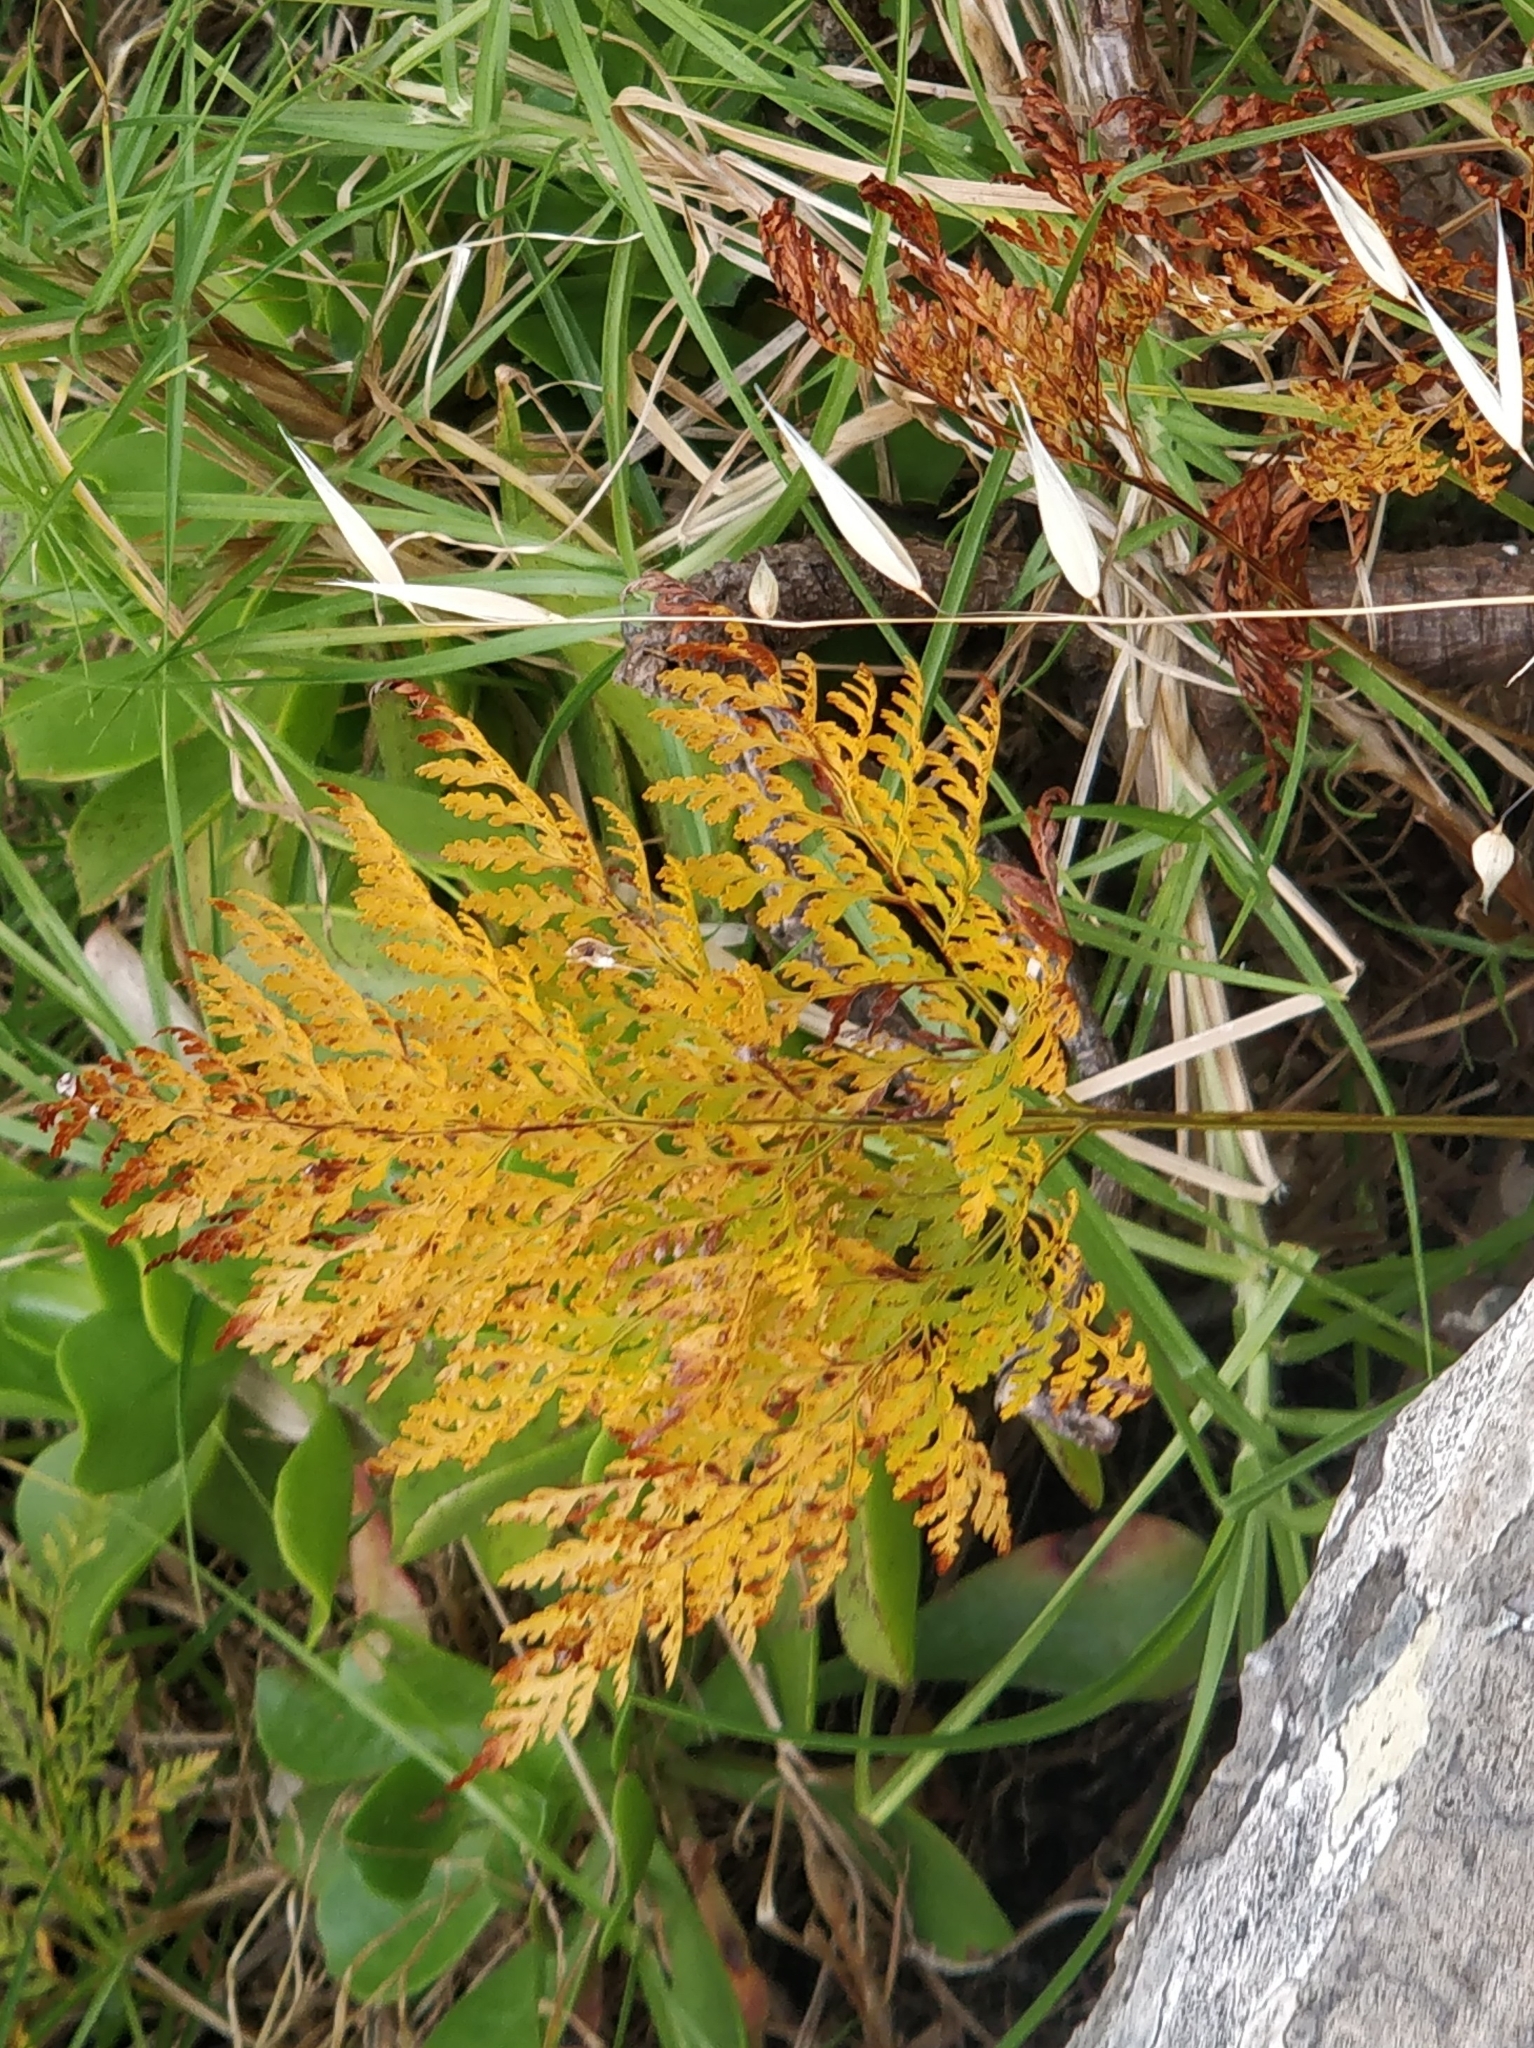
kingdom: Plantae
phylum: Tracheophyta
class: Polypodiopsida
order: Polypodiales
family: Davalliaceae
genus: Davallia
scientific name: Davallia canariensis
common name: Hare's-foot fern
